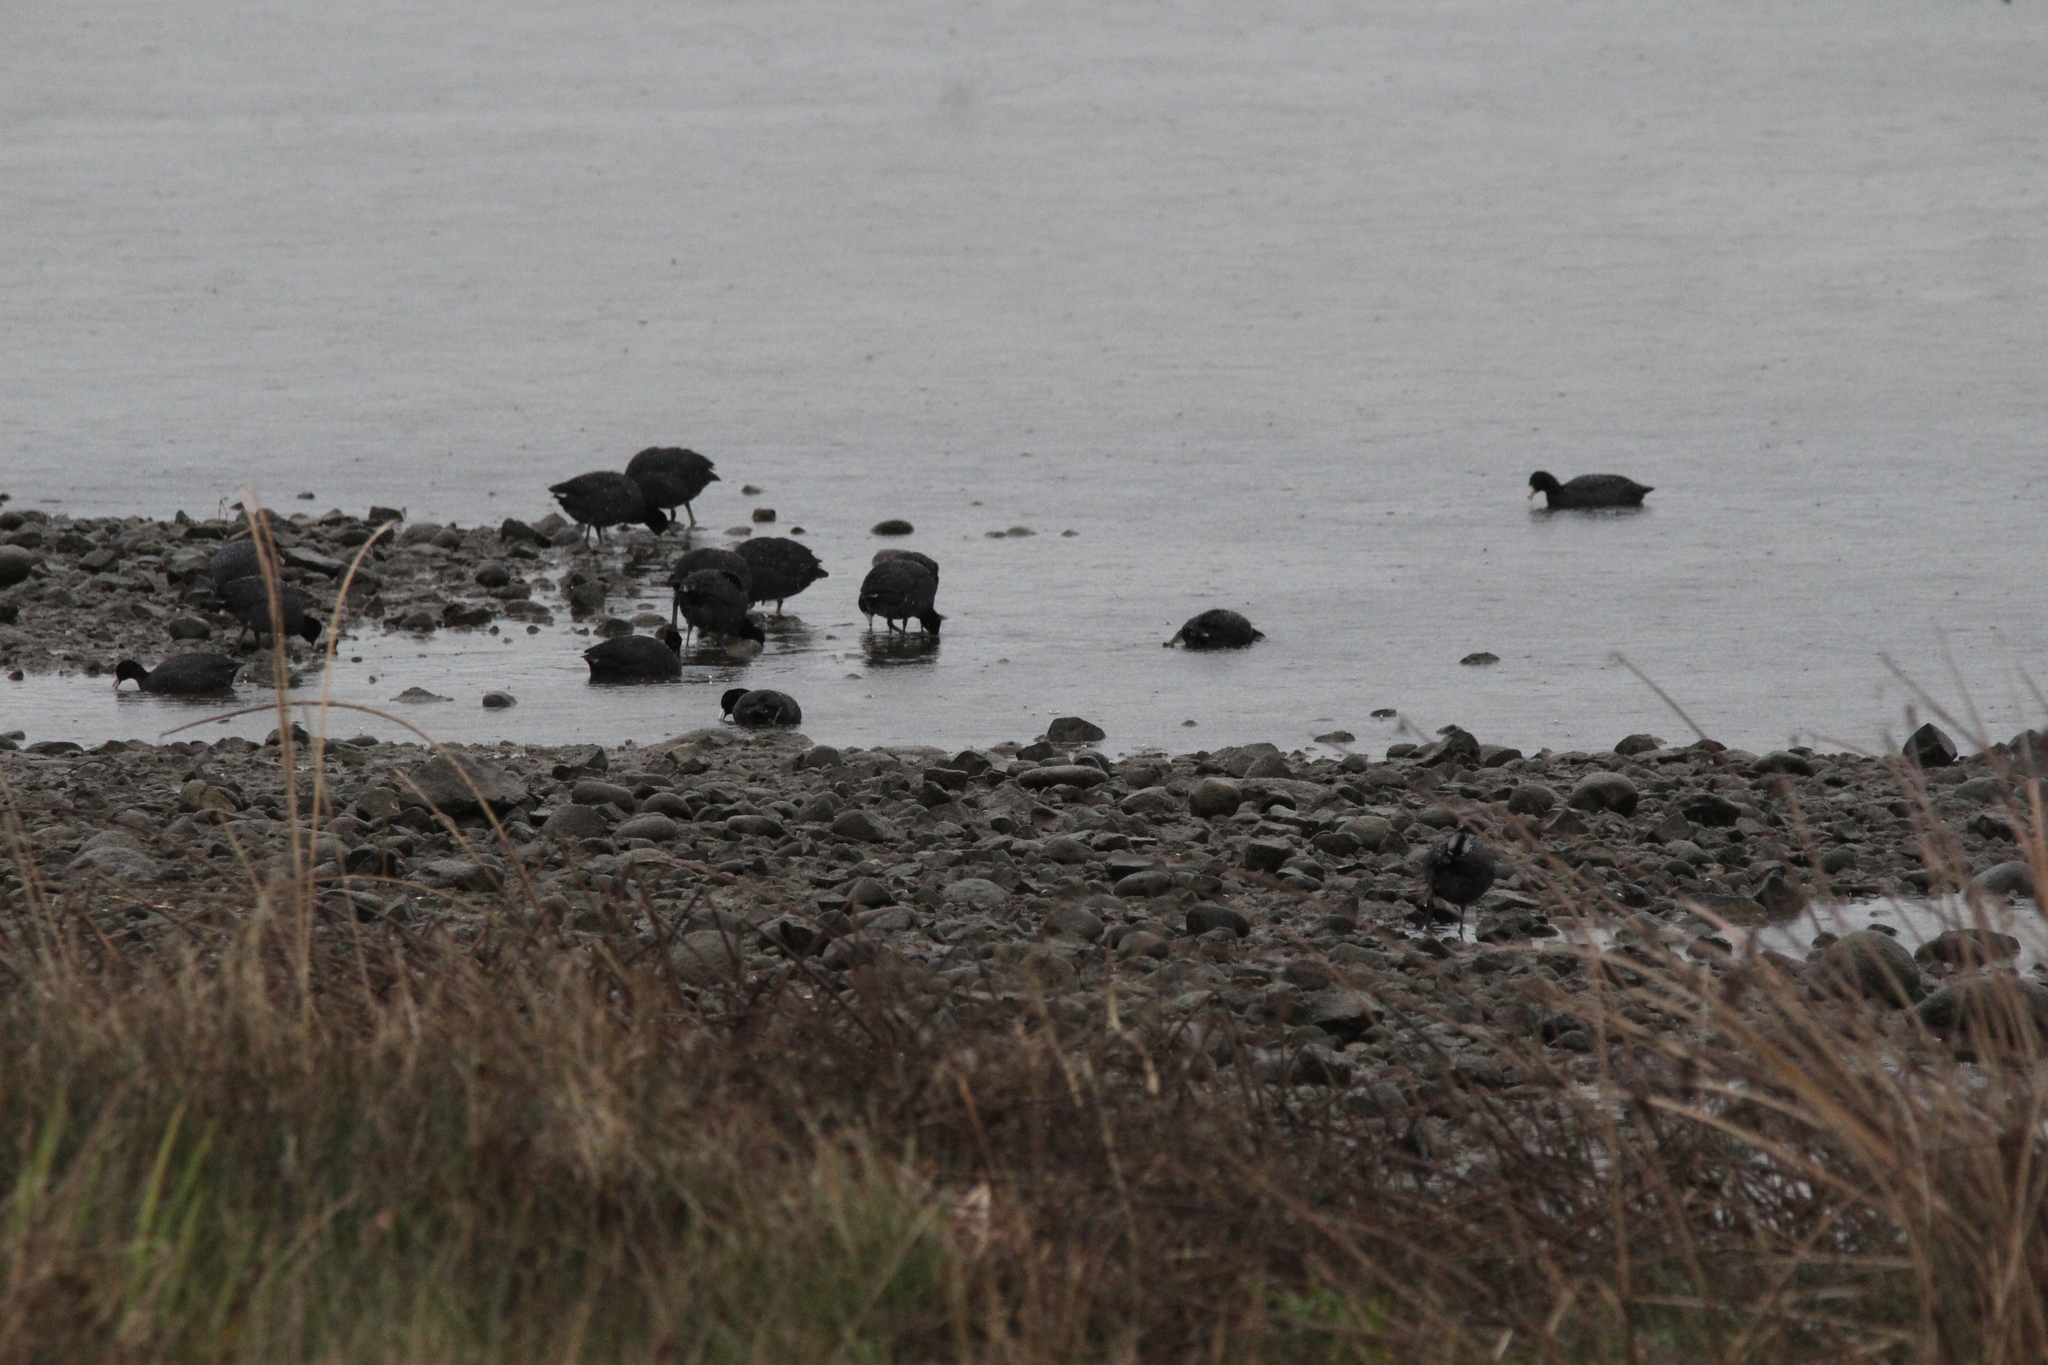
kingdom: Animalia
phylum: Chordata
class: Aves
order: Gruiformes
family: Rallidae
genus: Fulica
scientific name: Fulica americana
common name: American coot
